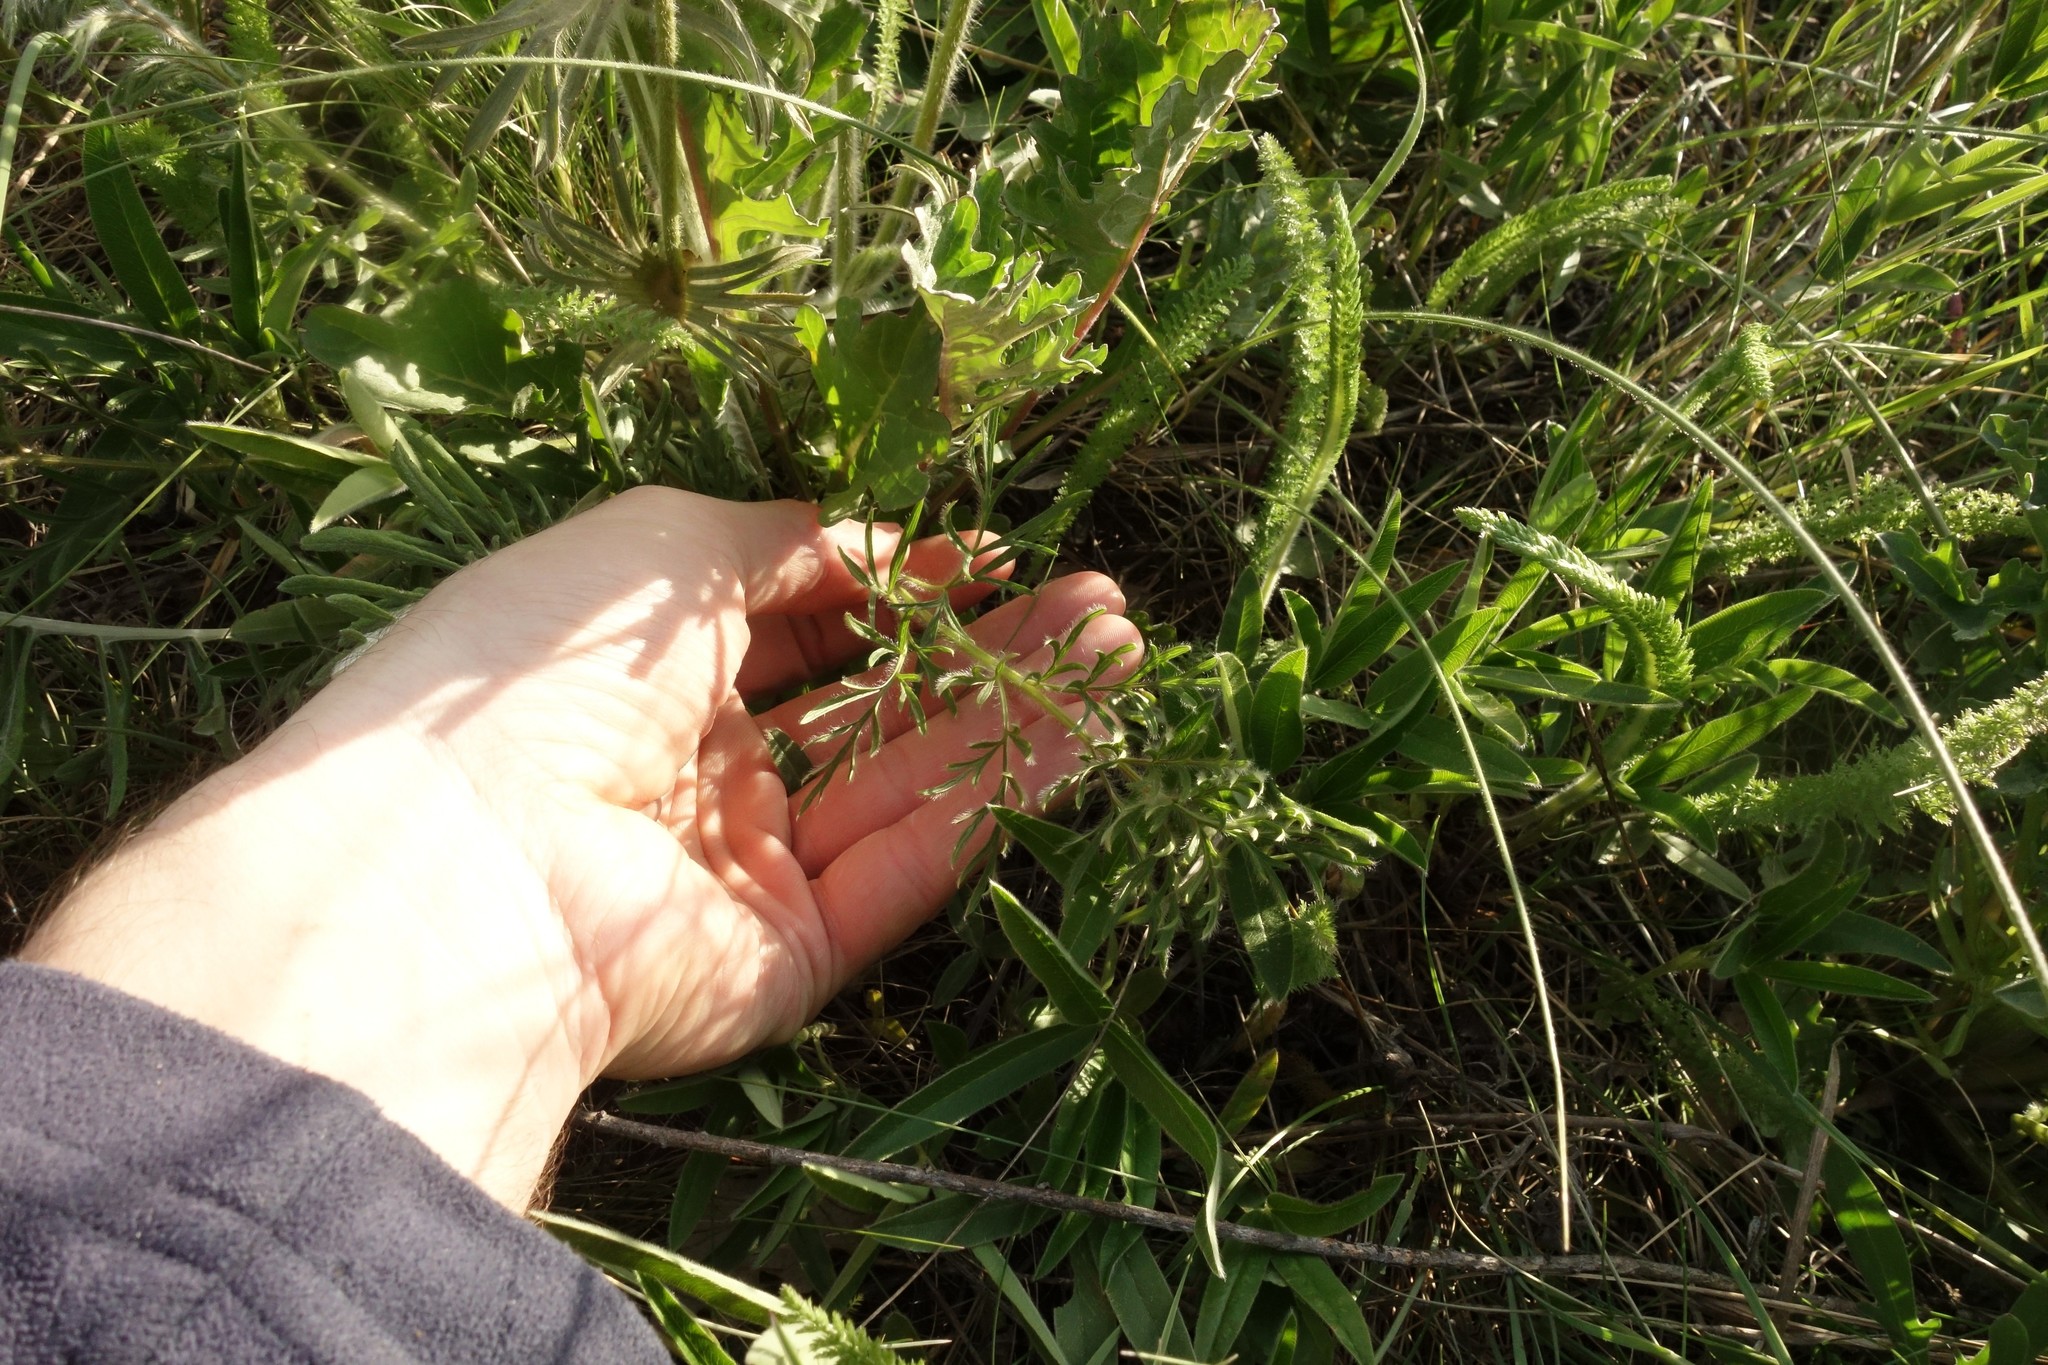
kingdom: Plantae
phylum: Tracheophyta
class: Magnoliopsida
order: Ranunculales
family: Ranunculaceae
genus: Pulsatilla
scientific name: Pulsatilla pratensis
